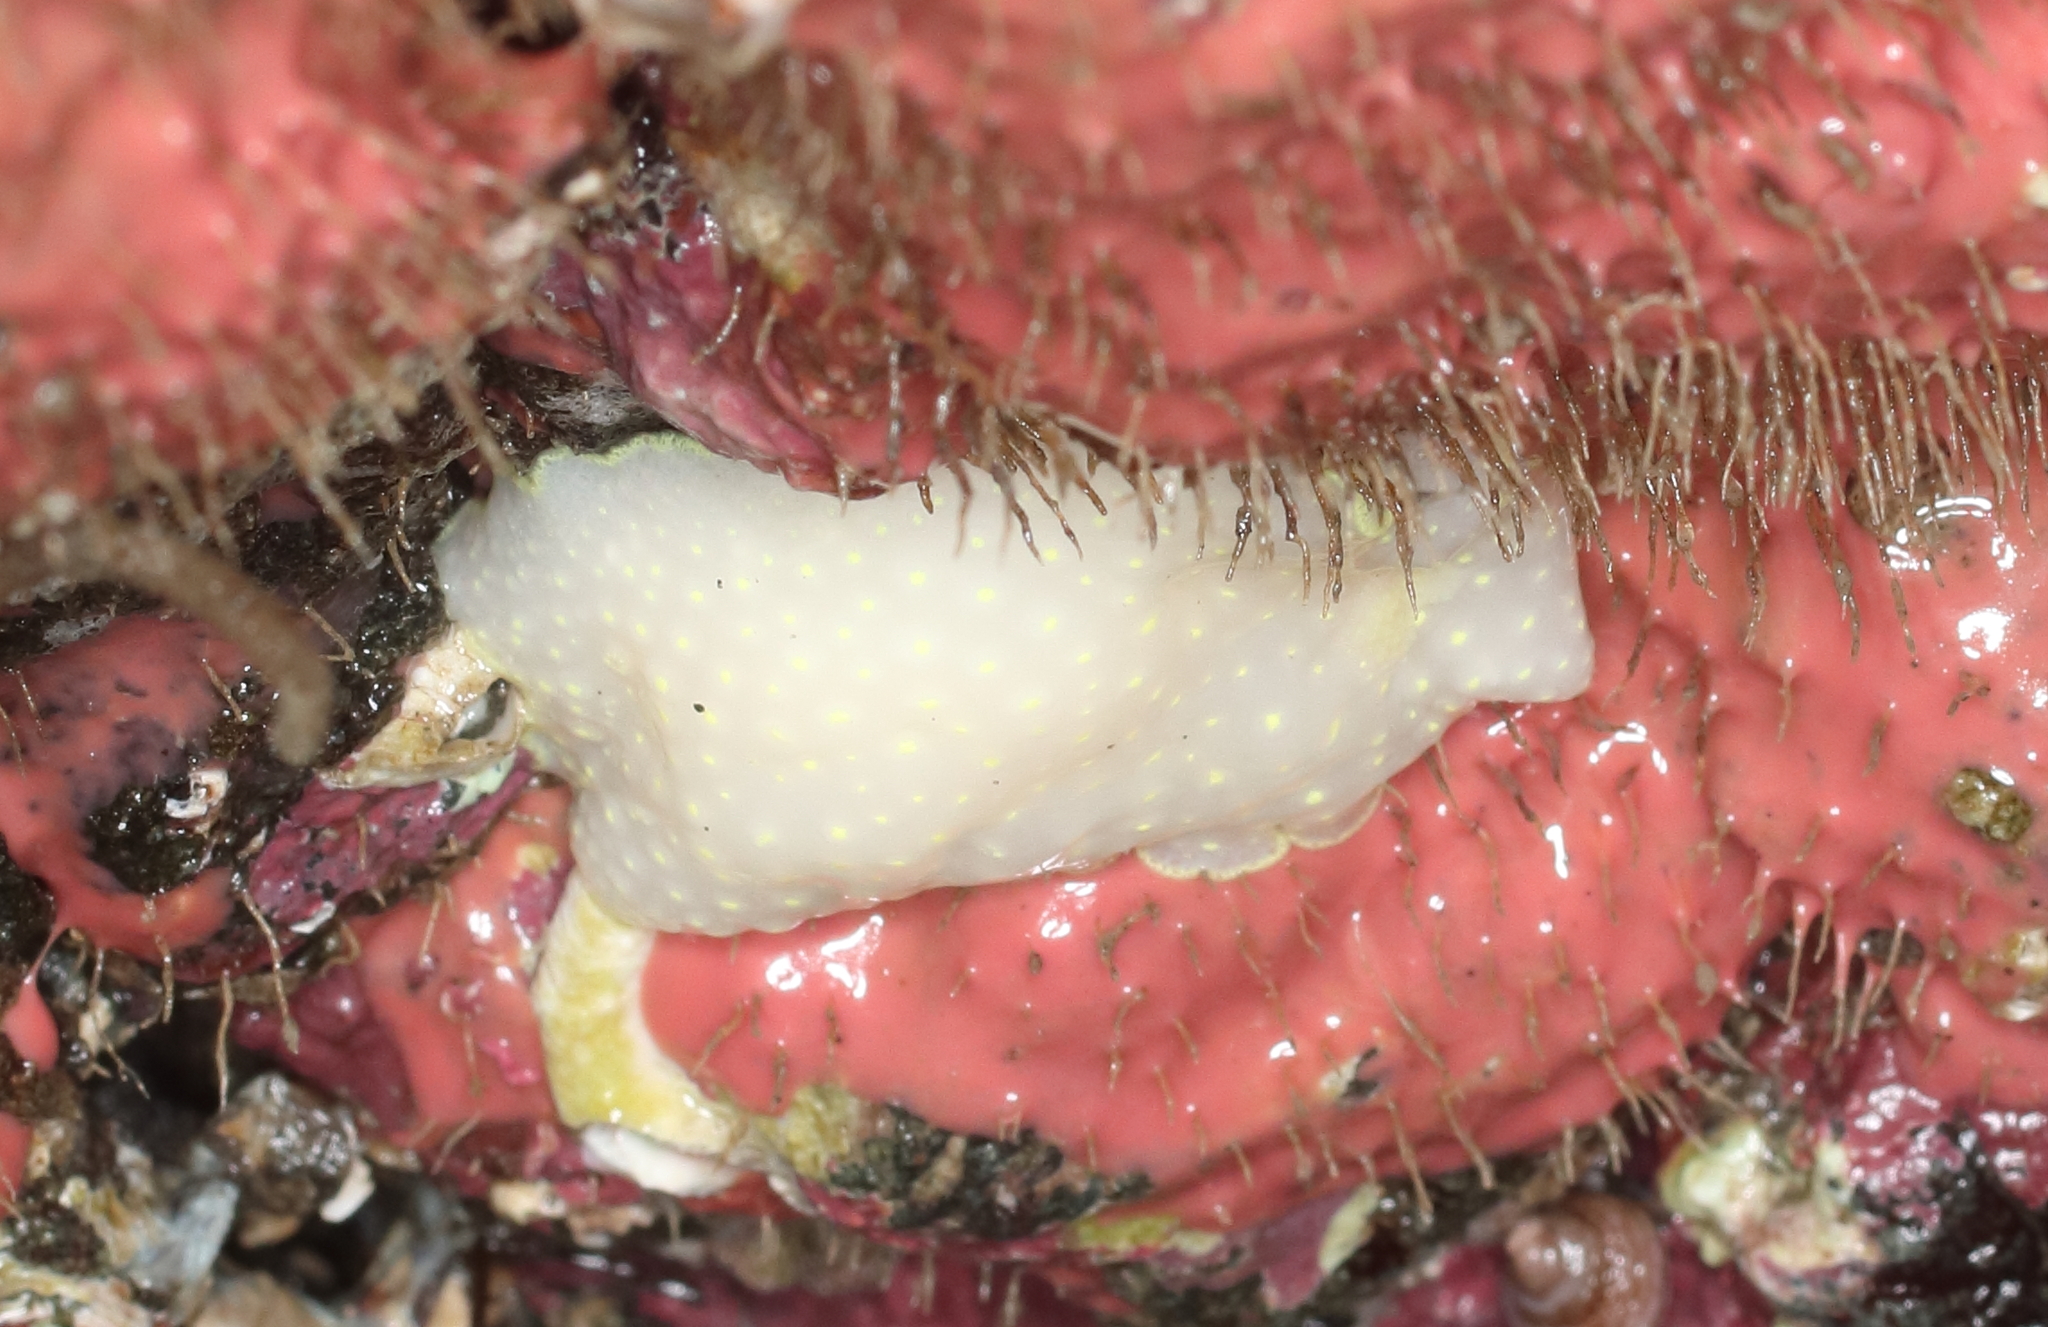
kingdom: Animalia
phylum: Mollusca
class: Gastropoda
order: Nudibranchia
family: Cadlinidae
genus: Cadlina
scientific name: Cadlina luteomarginata
